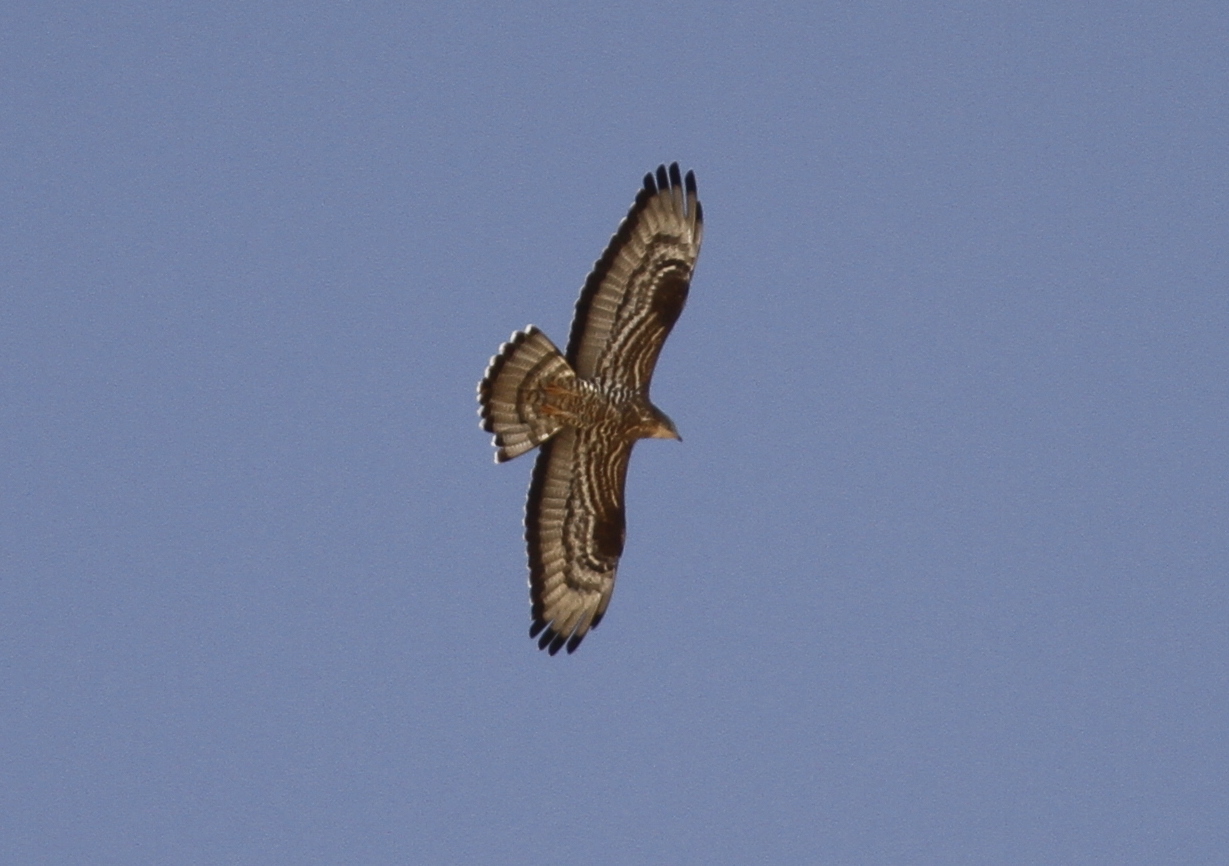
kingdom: Animalia
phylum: Chordata
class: Aves
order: Accipitriformes
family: Accipitridae
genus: Pernis
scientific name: Pernis apivorus
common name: European honey buzzard
